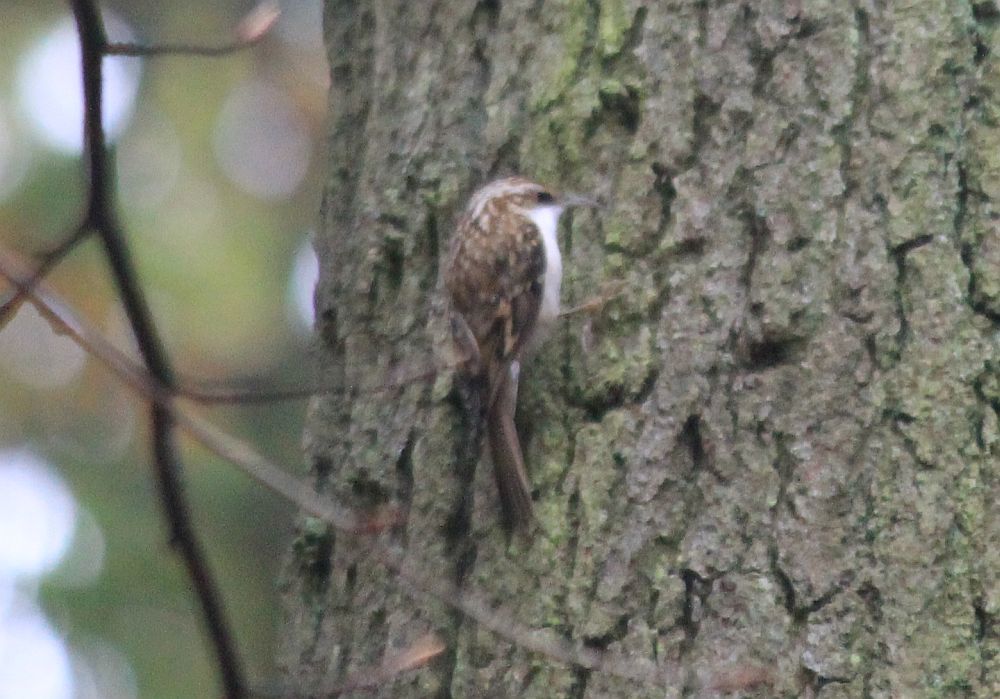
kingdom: Animalia
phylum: Chordata
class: Aves
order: Passeriformes
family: Certhiidae
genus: Certhia
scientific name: Certhia familiaris
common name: Eurasian treecreeper
